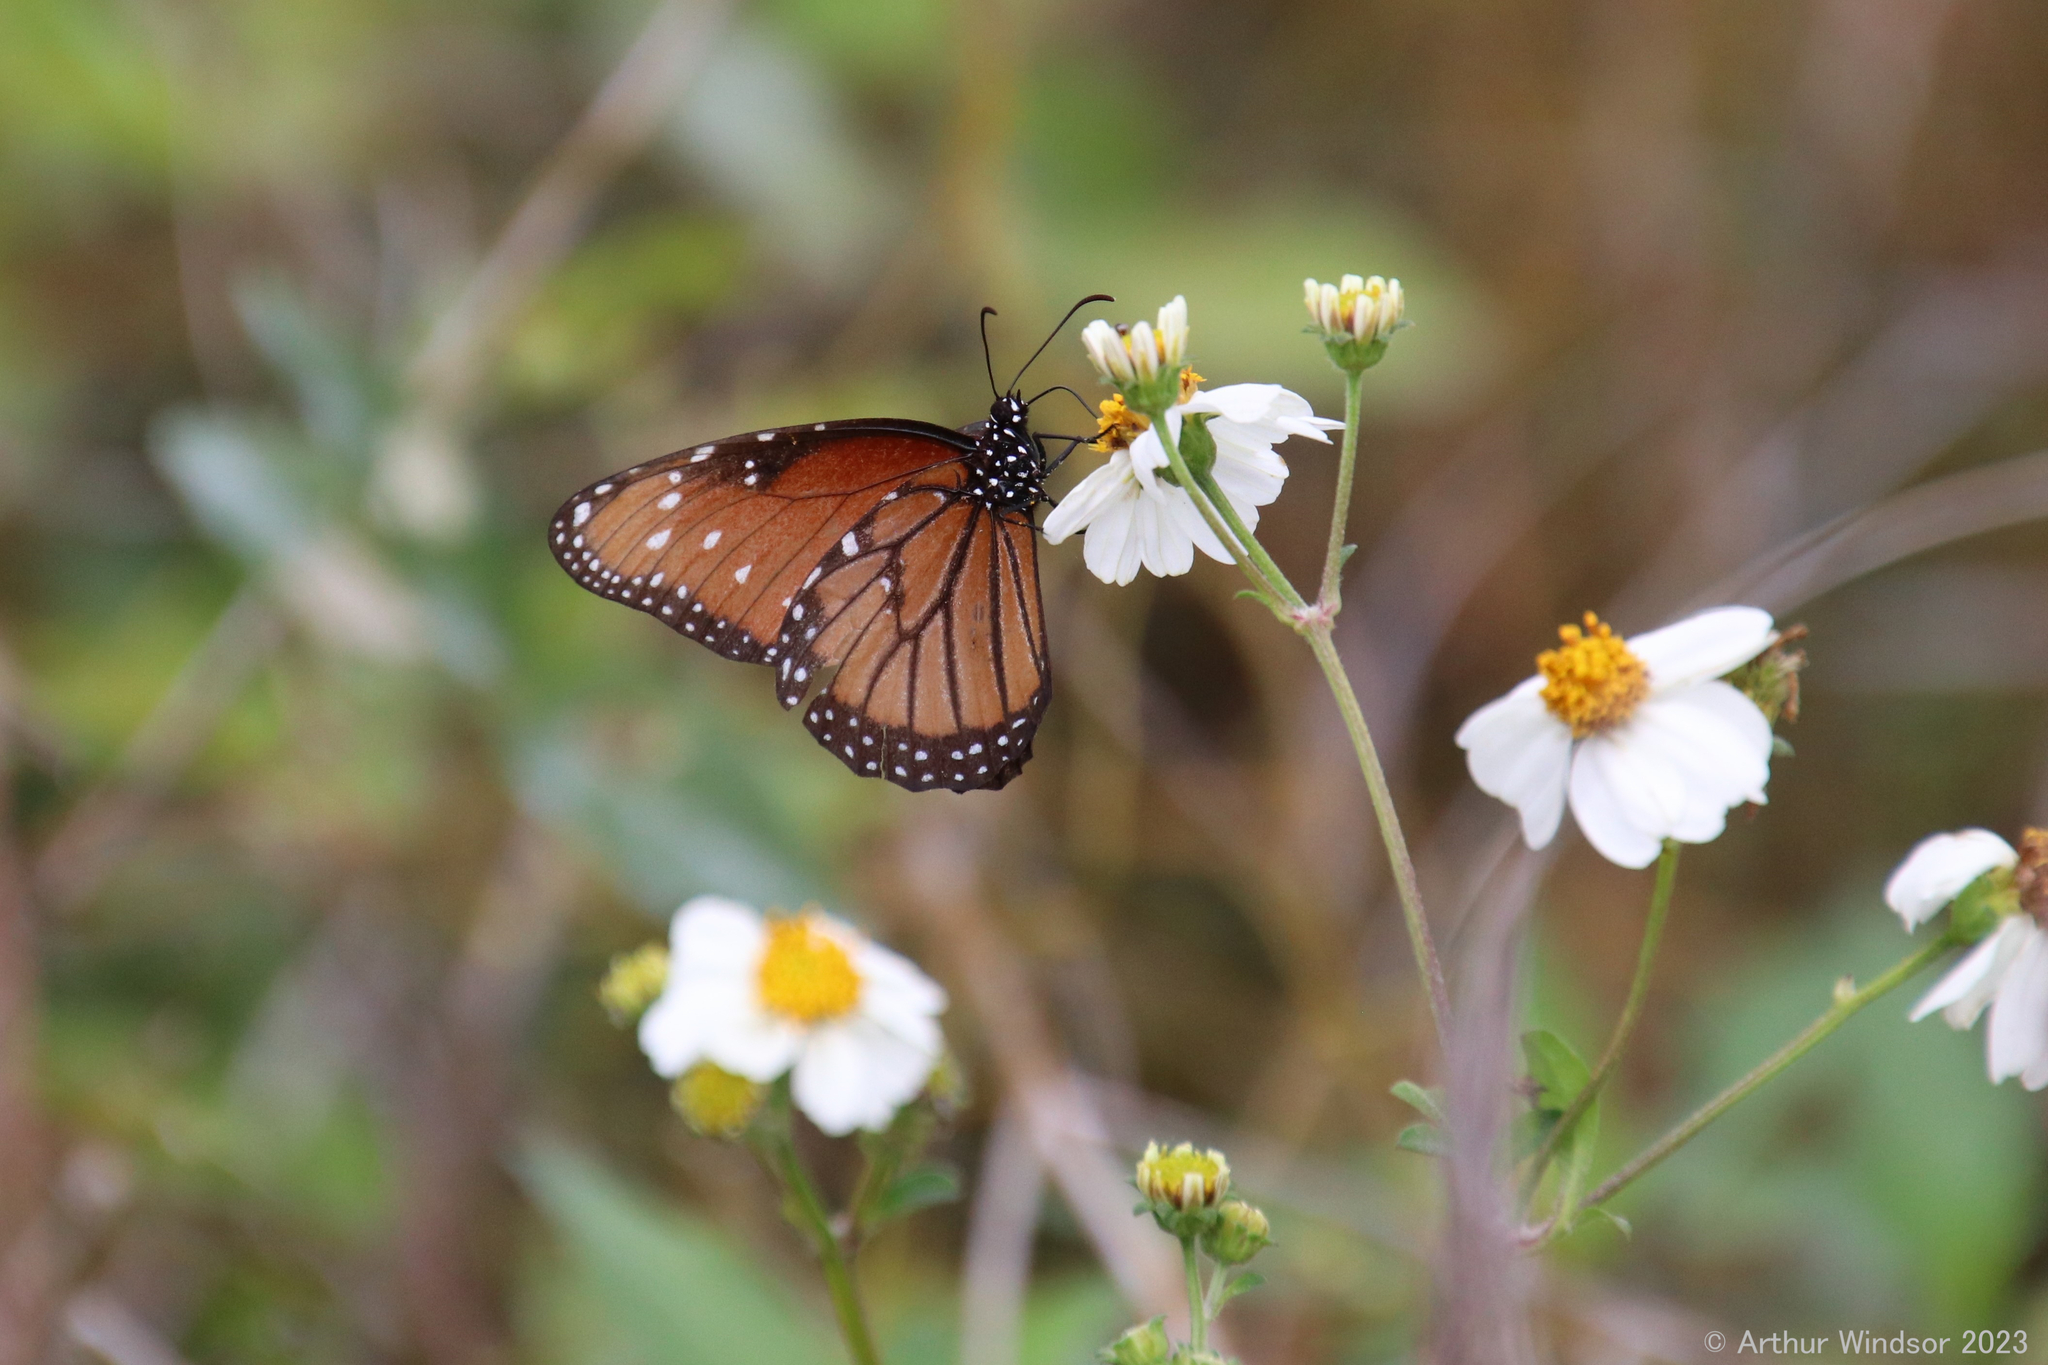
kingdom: Animalia
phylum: Arthropoda
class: Insecta
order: Lepidoptera
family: Nymphalidae
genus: Danaus
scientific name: Danaus gilippus
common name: Queen
